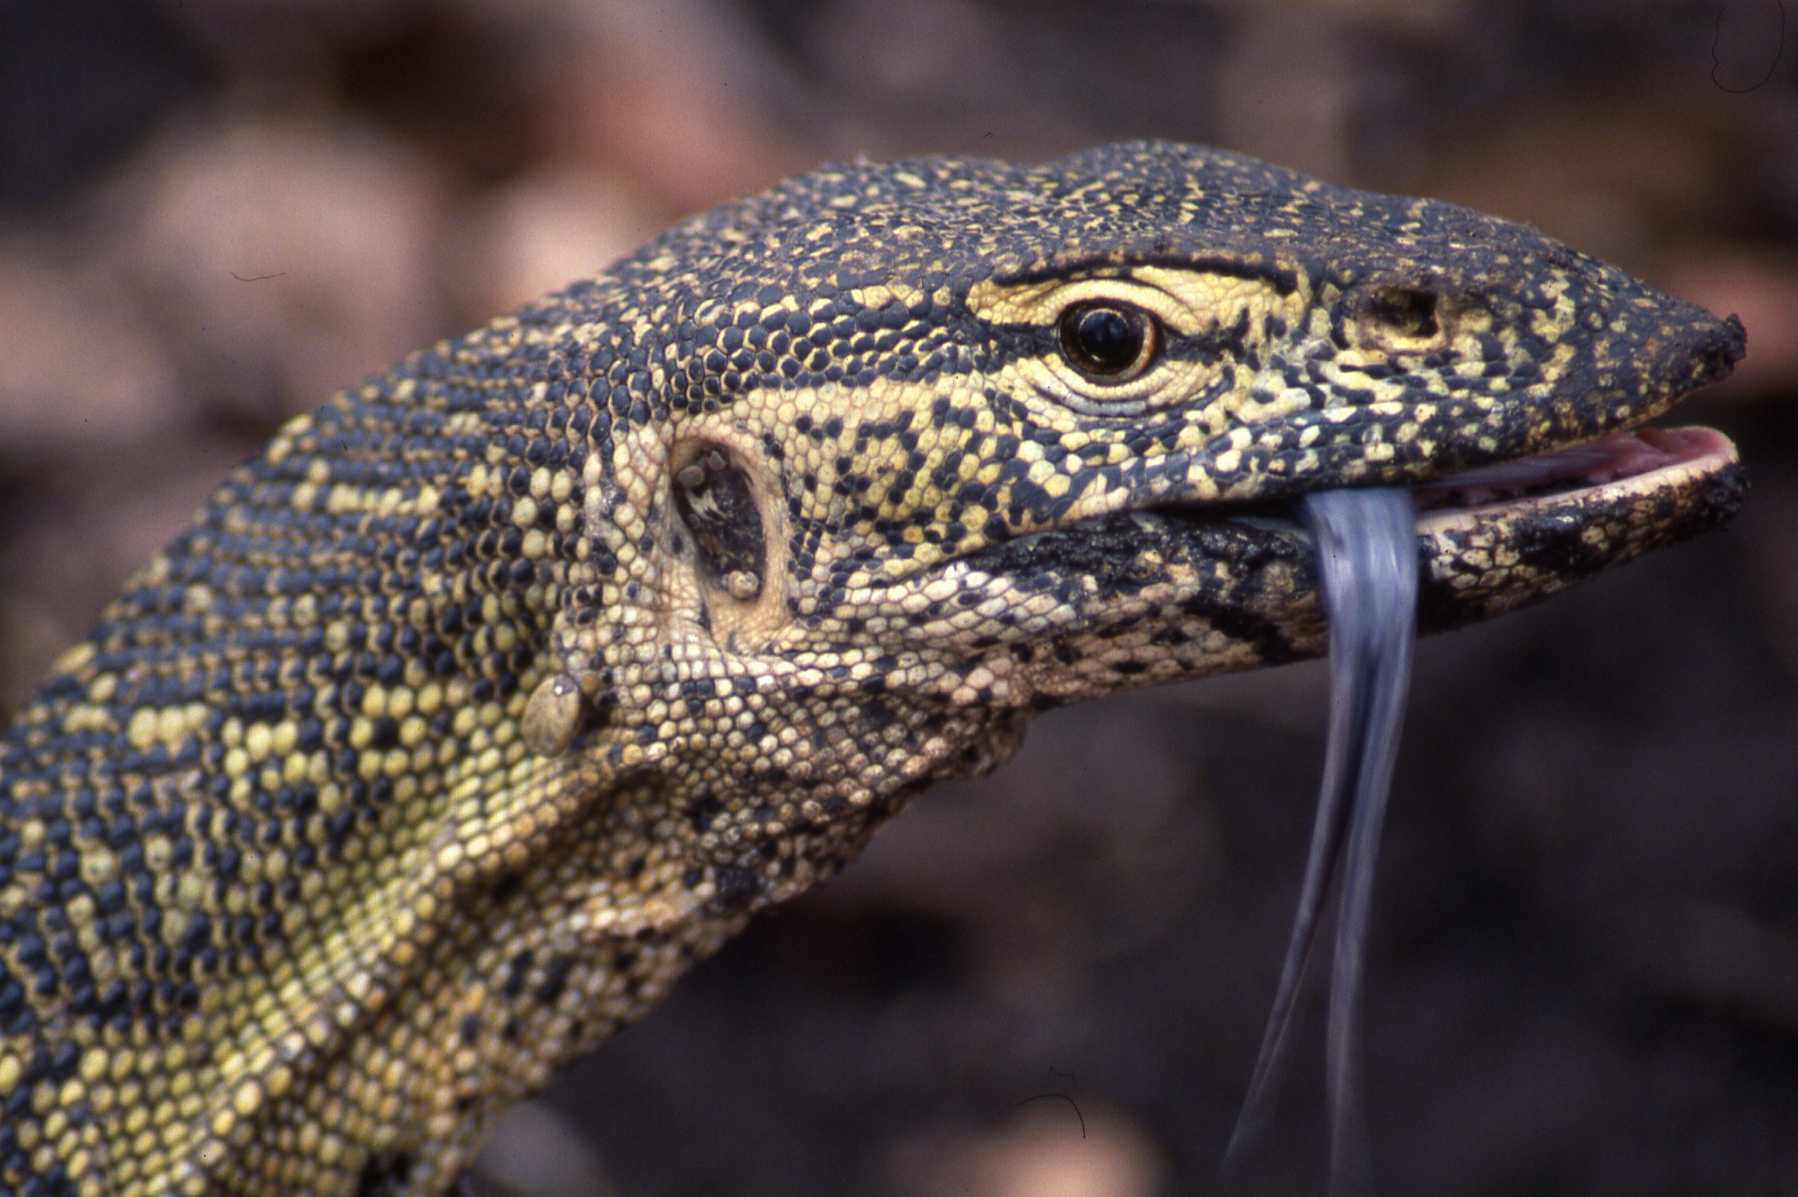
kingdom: Animalia
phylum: Chordata
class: Squamata
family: Varanidae
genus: Varanus
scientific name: Varanus niloticus
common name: Nile monitor
